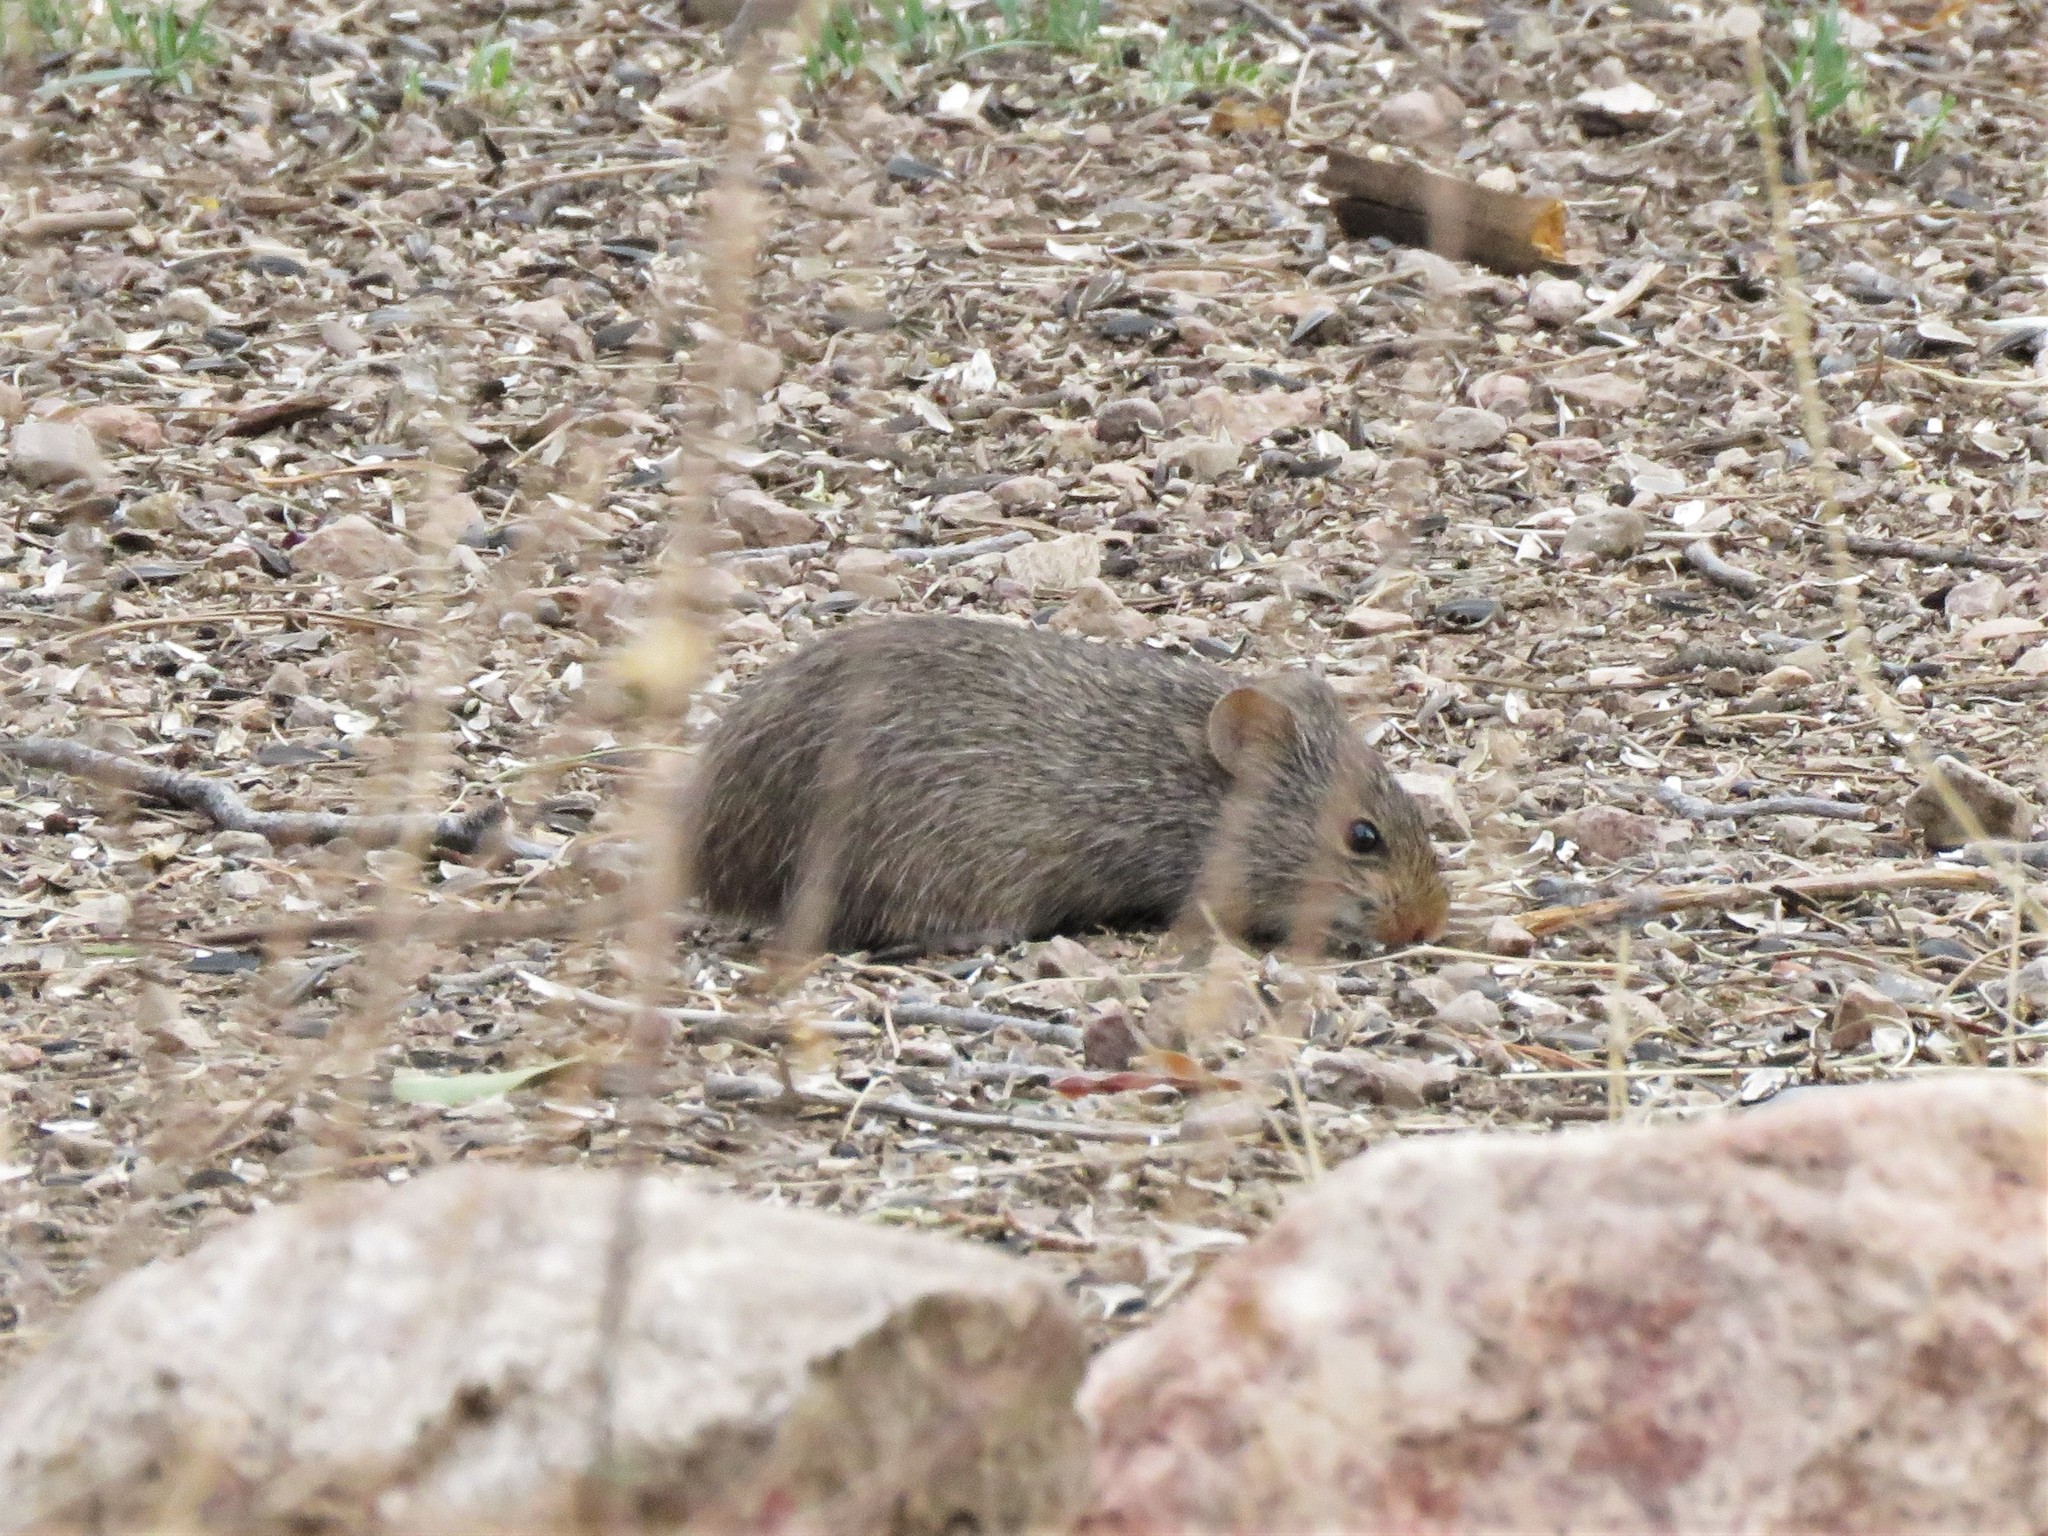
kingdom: Animalia
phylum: Chordata
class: Mammalia
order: Rodentia
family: Cricetidae
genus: Sigmodon
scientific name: Sigmodon ochrognathus
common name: Yellow-nosed cotton rat
